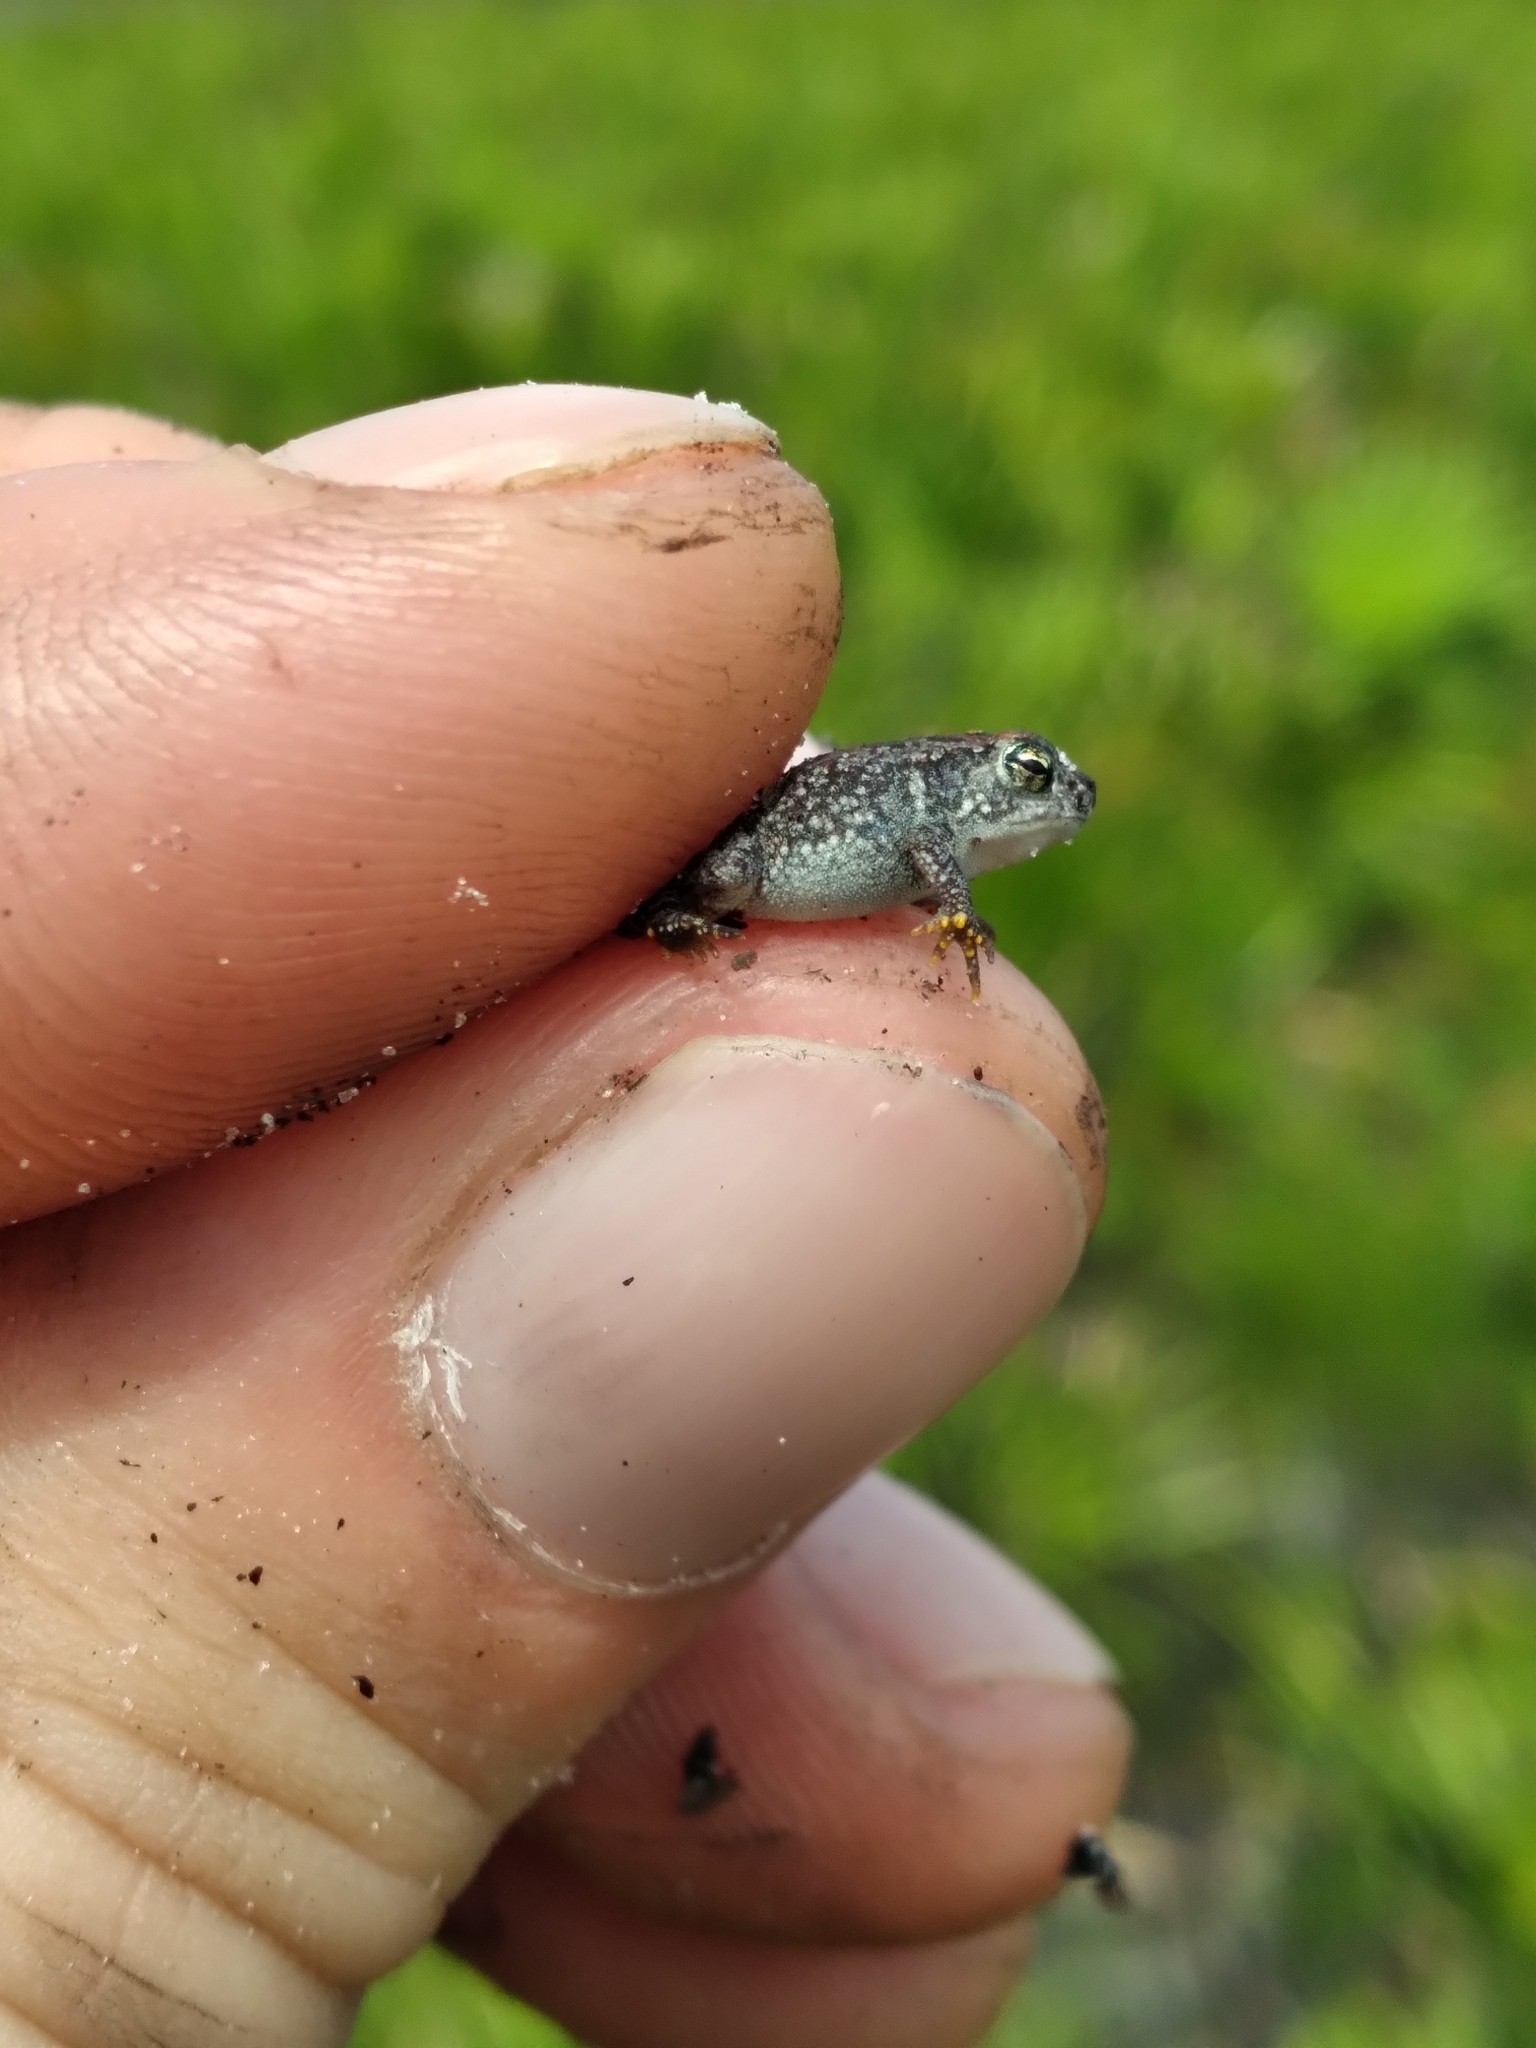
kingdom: Animalia
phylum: Chordata
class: Amphibia
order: Anura
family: Bufonidae
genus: Anaxyrus
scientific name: Anaxyrus quercicus
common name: Oak toad
